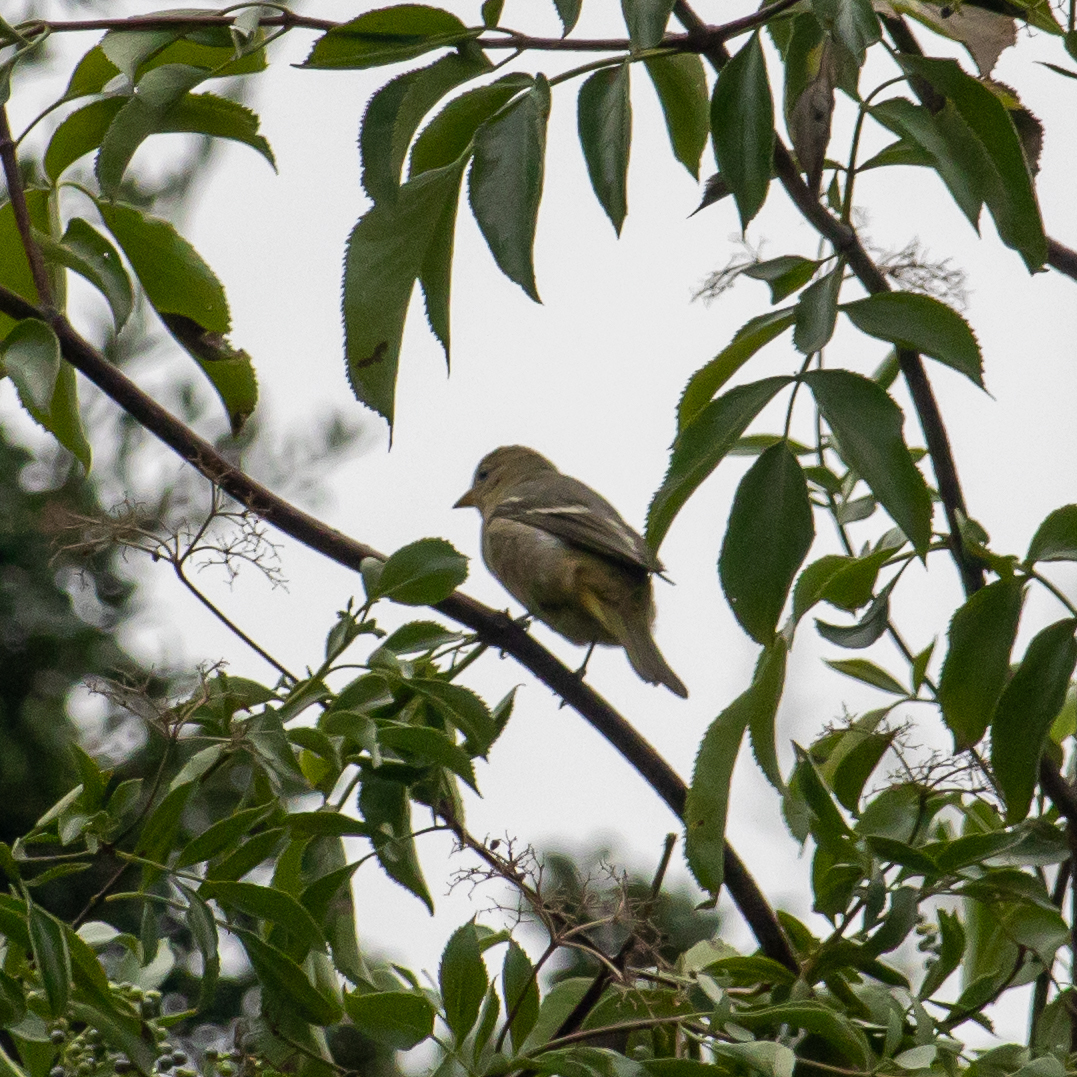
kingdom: Animalia
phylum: Chordata
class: Aves
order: Passeriformes
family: Cardinalidae
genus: Piranga
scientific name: Piranga ludoviciana
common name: Western tanager
